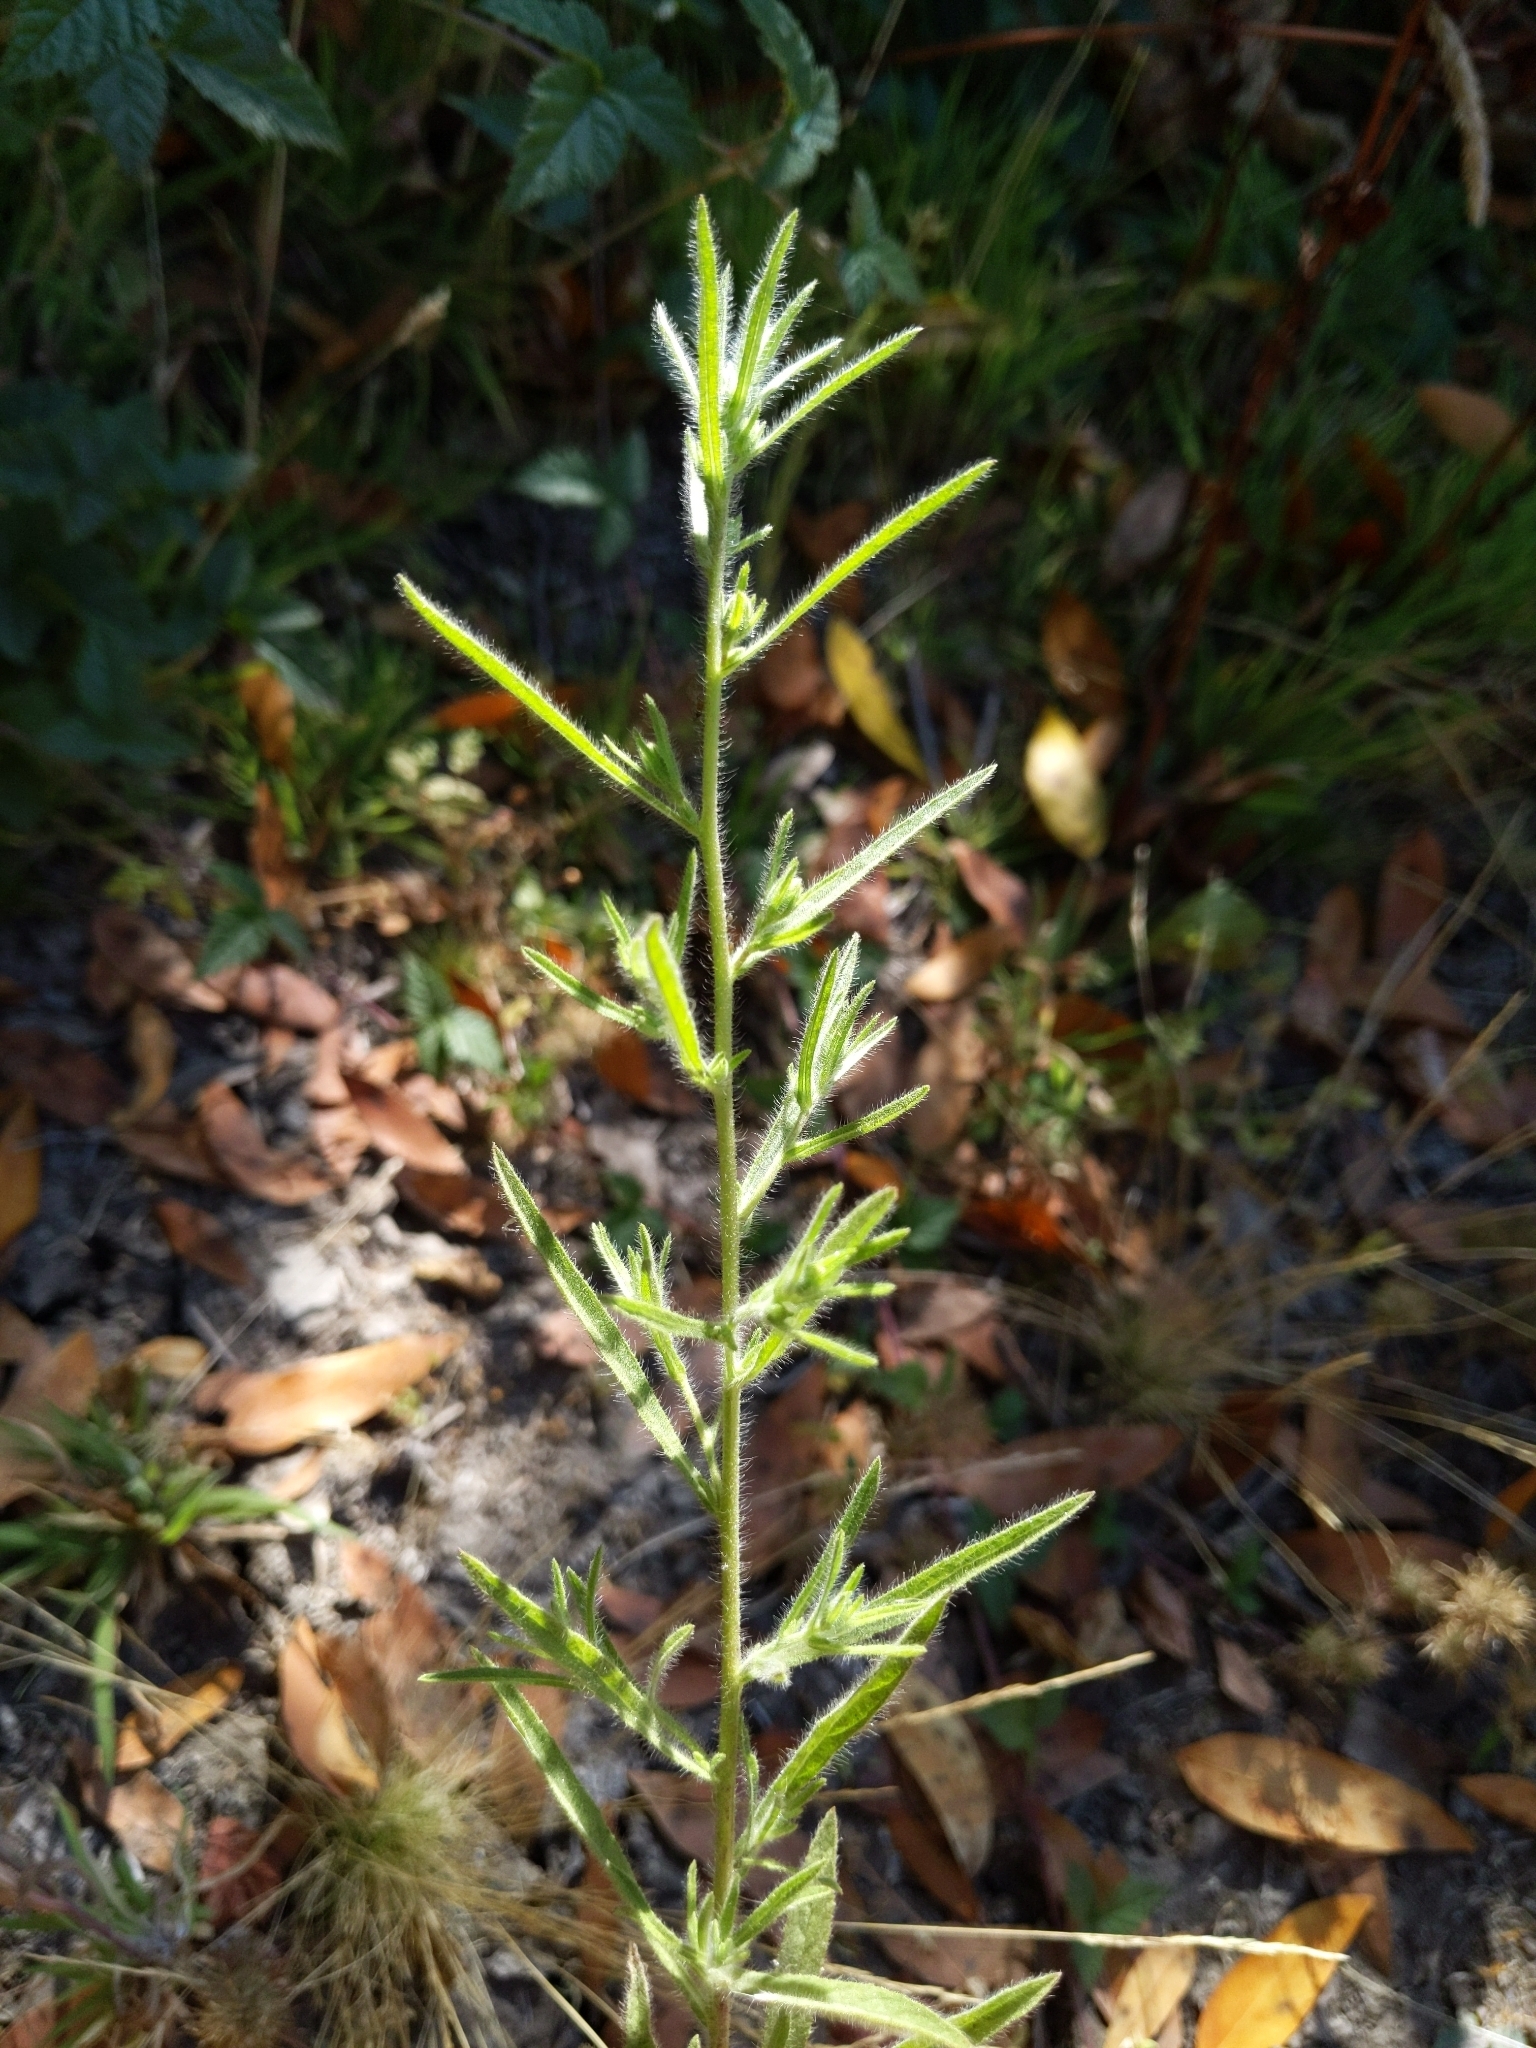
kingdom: Plantae
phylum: Tracheophyta
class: Magnoliopsida
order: Asterales
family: Asteraceae
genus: Dittrichia
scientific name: Dittrichia graveolens
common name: Stinking fleabane
